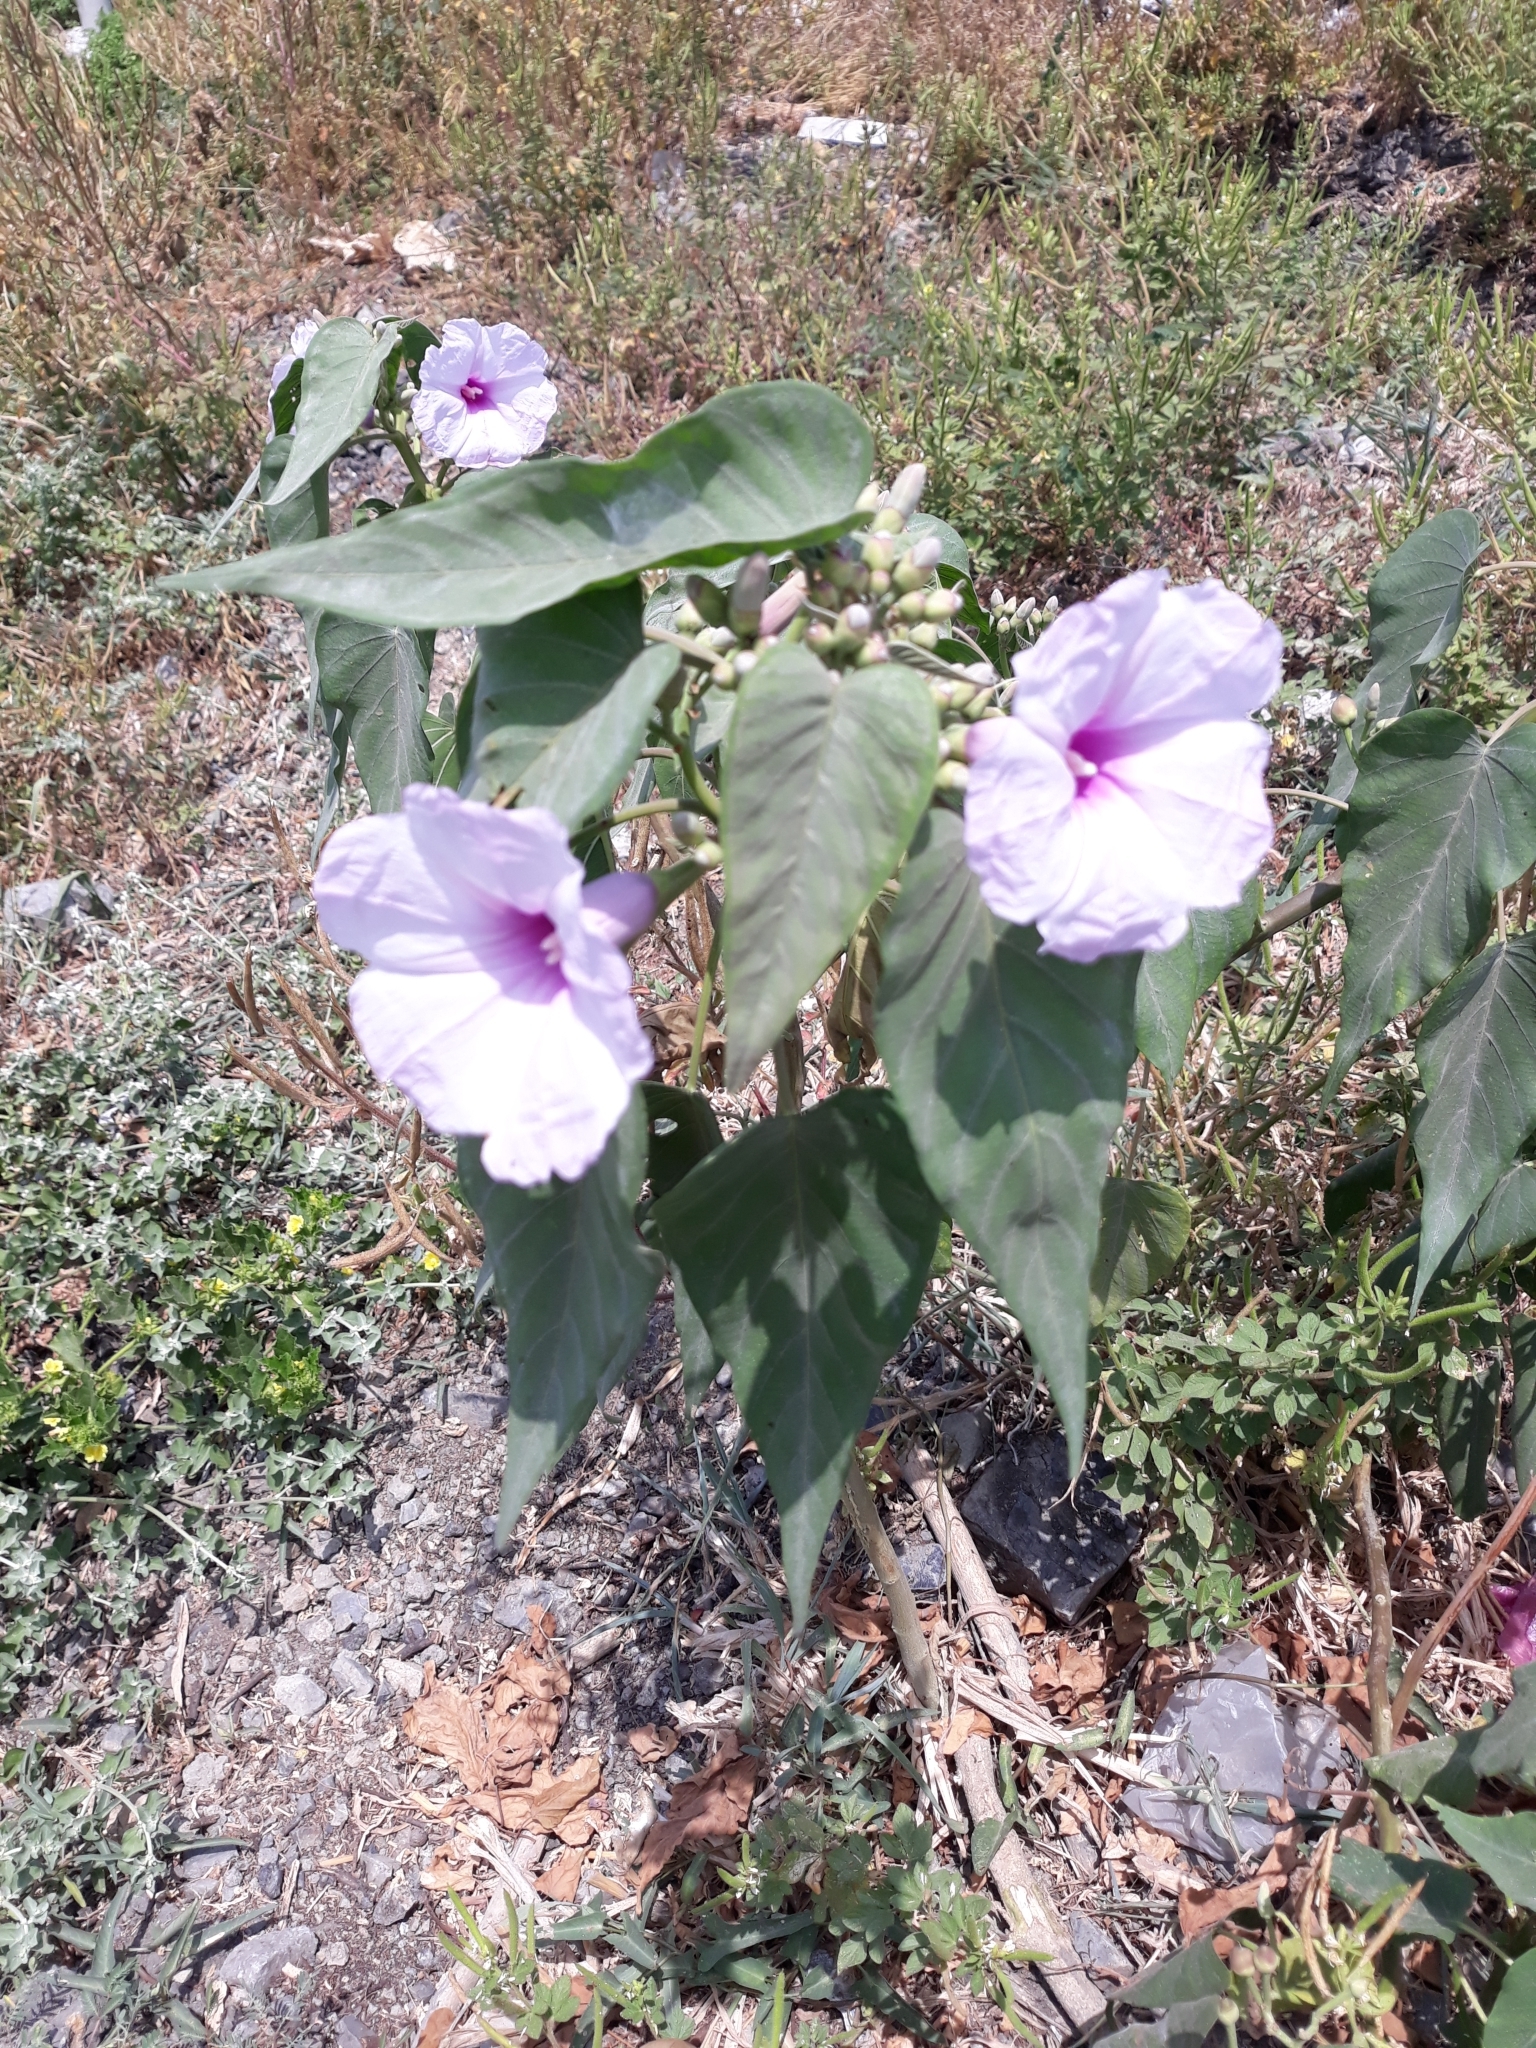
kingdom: Plantae
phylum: Tracheophyta
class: Magnoliopsida
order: Solanales
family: Convolvulaceae
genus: Ipomoea
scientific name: Ipomoea carnea
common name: Morning-glory
